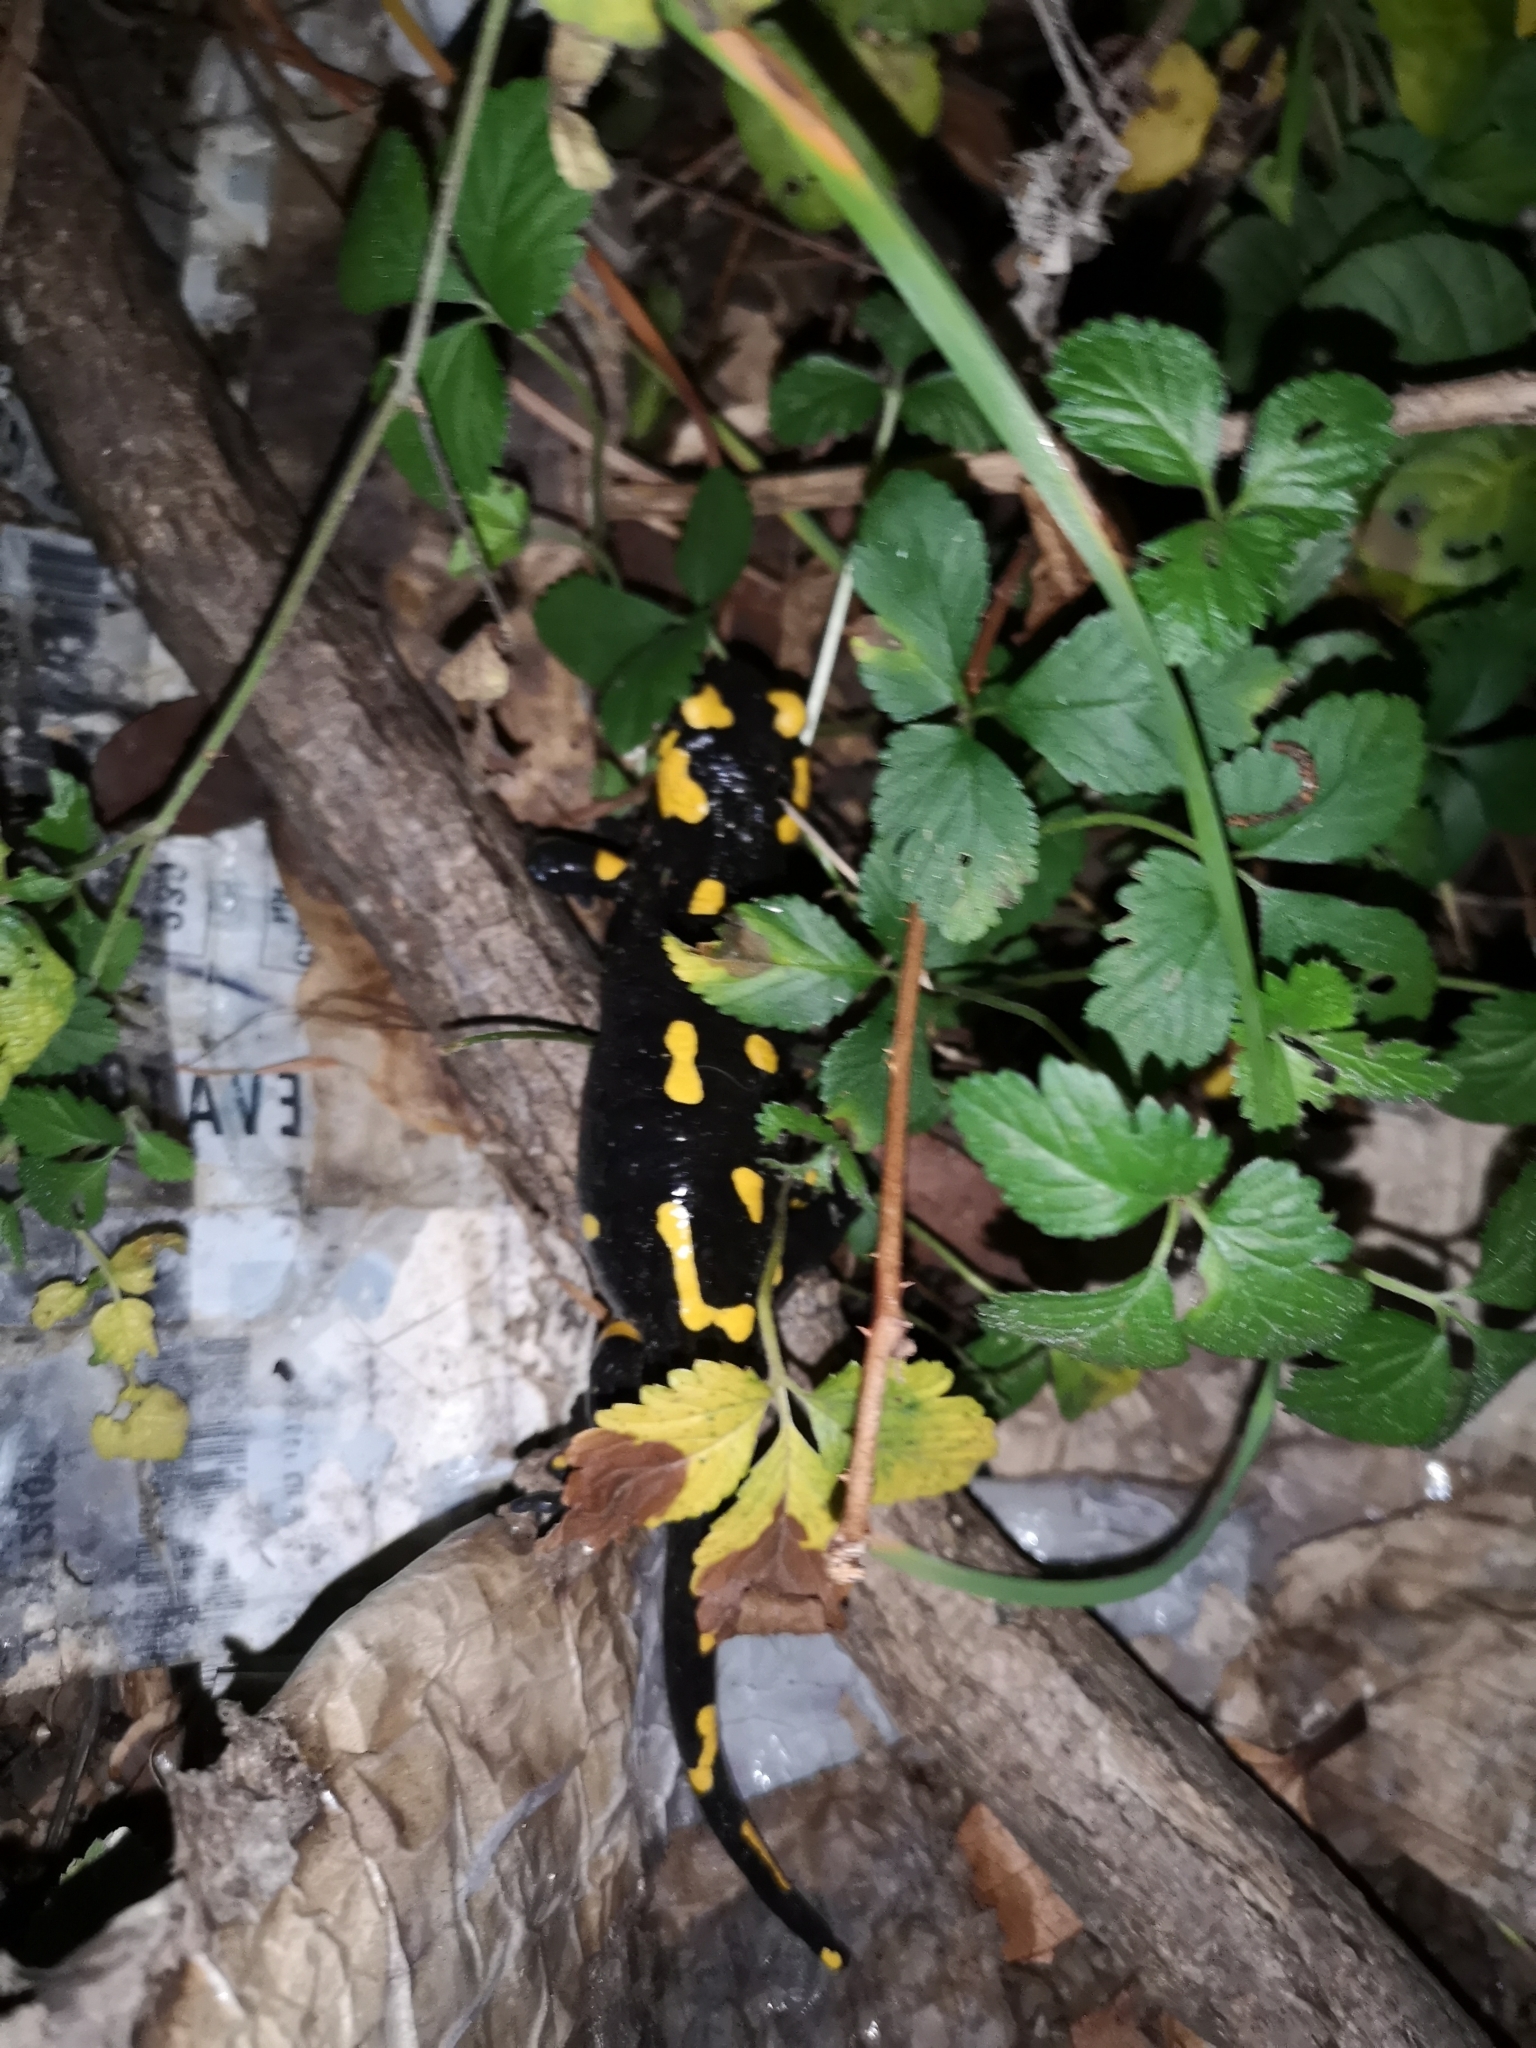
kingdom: Animalia
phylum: Chordata
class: Amphibia
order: Caudata
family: Salamandridae
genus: Salamandra
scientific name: Salamandra salamandra
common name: Fire salamander
